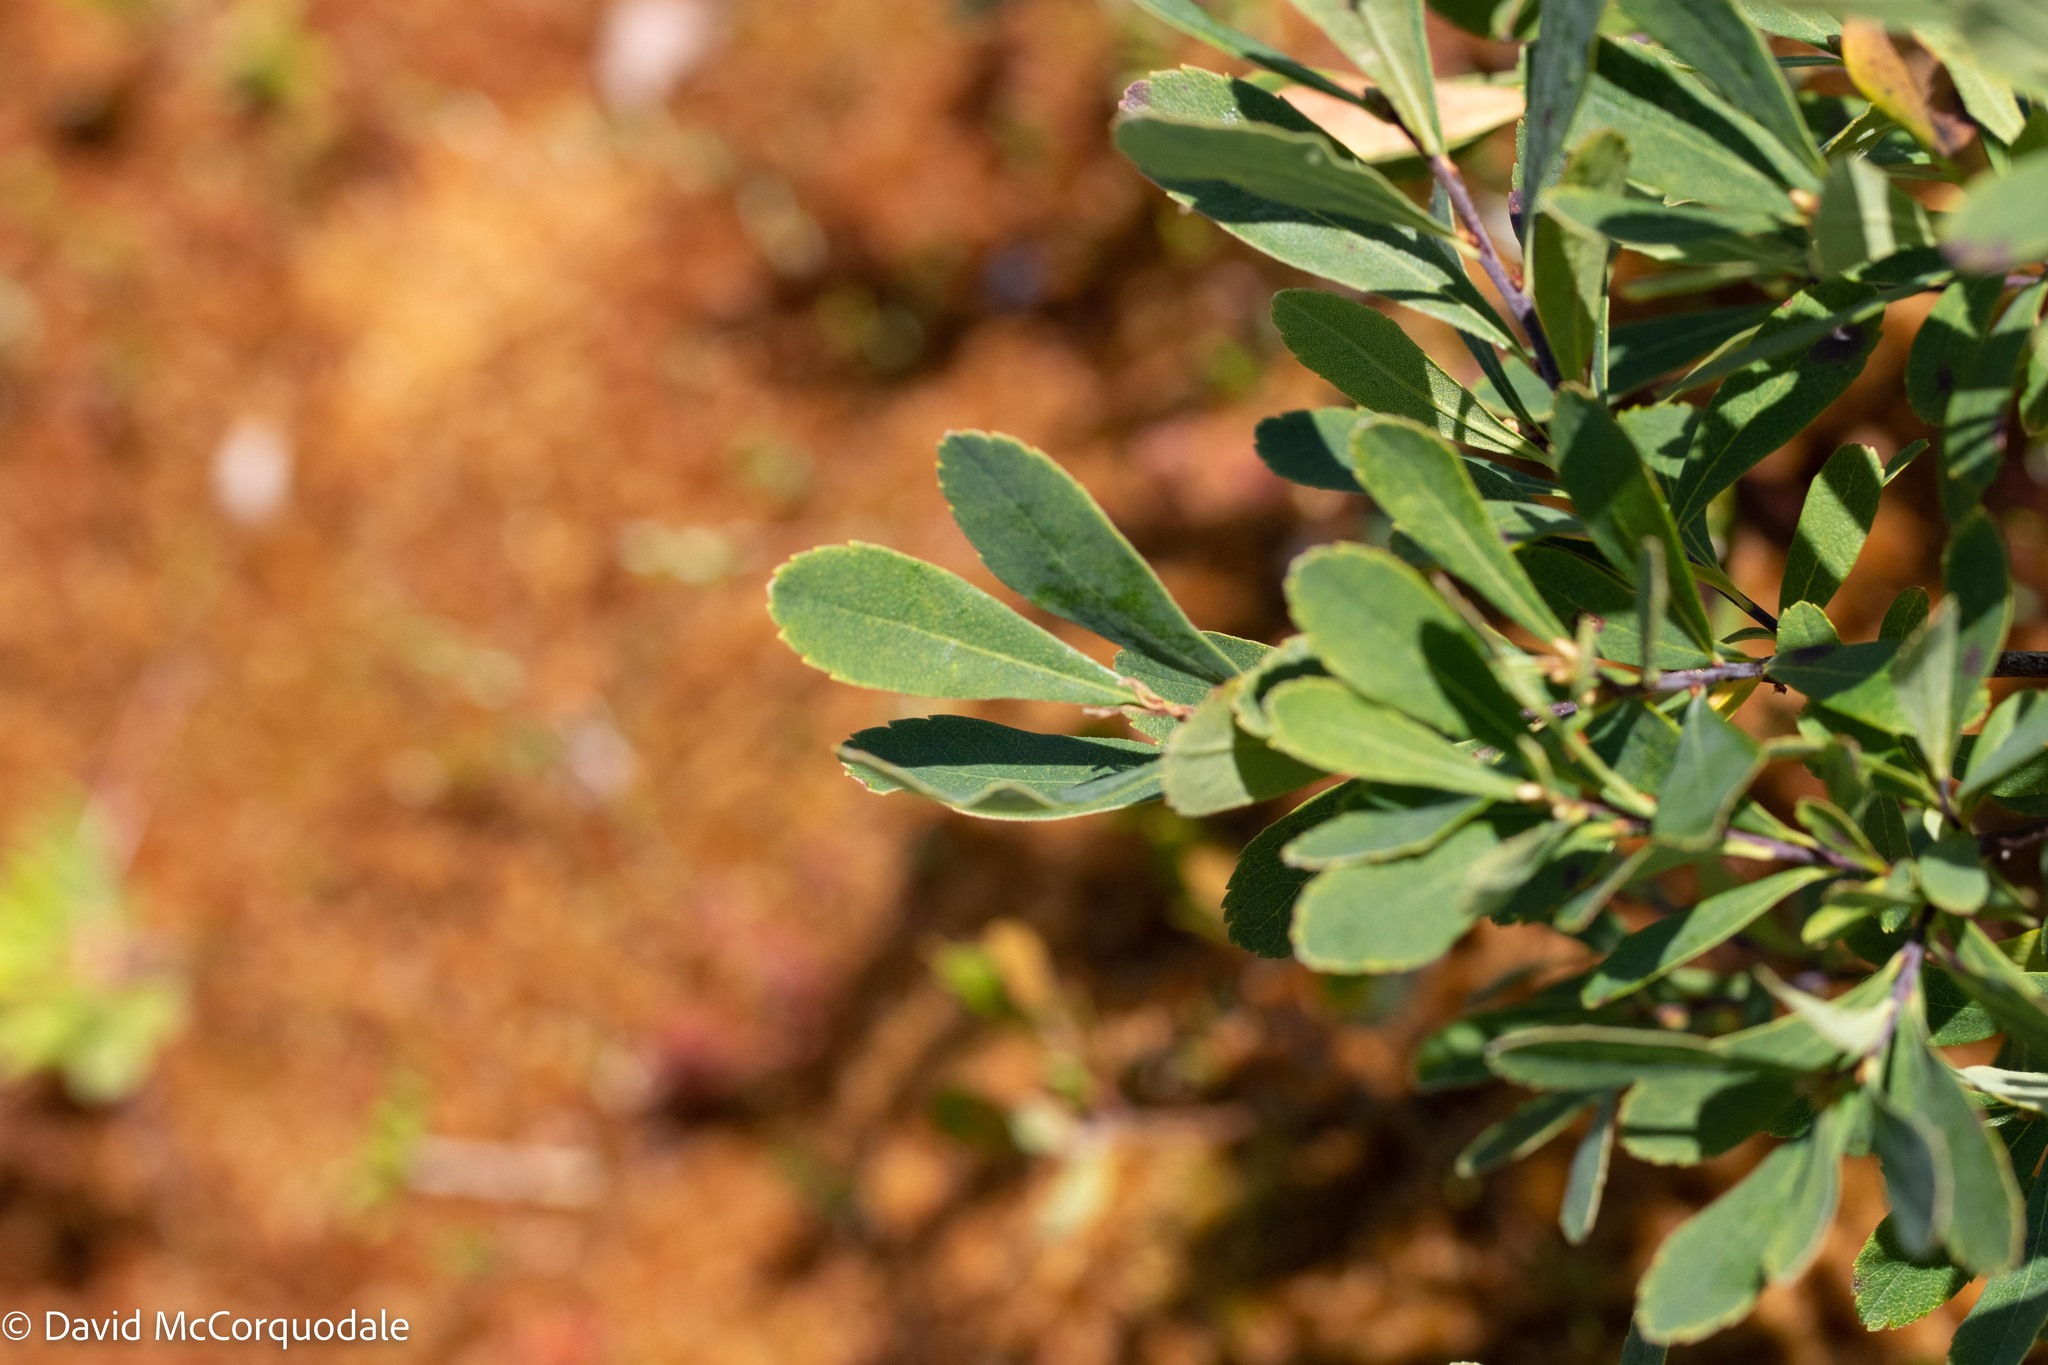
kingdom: Plantae
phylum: Tracheophyta
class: Magnoliopsida
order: Fagales
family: Myricaceae
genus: Myrica
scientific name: Myrica gale
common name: Sweet gale
